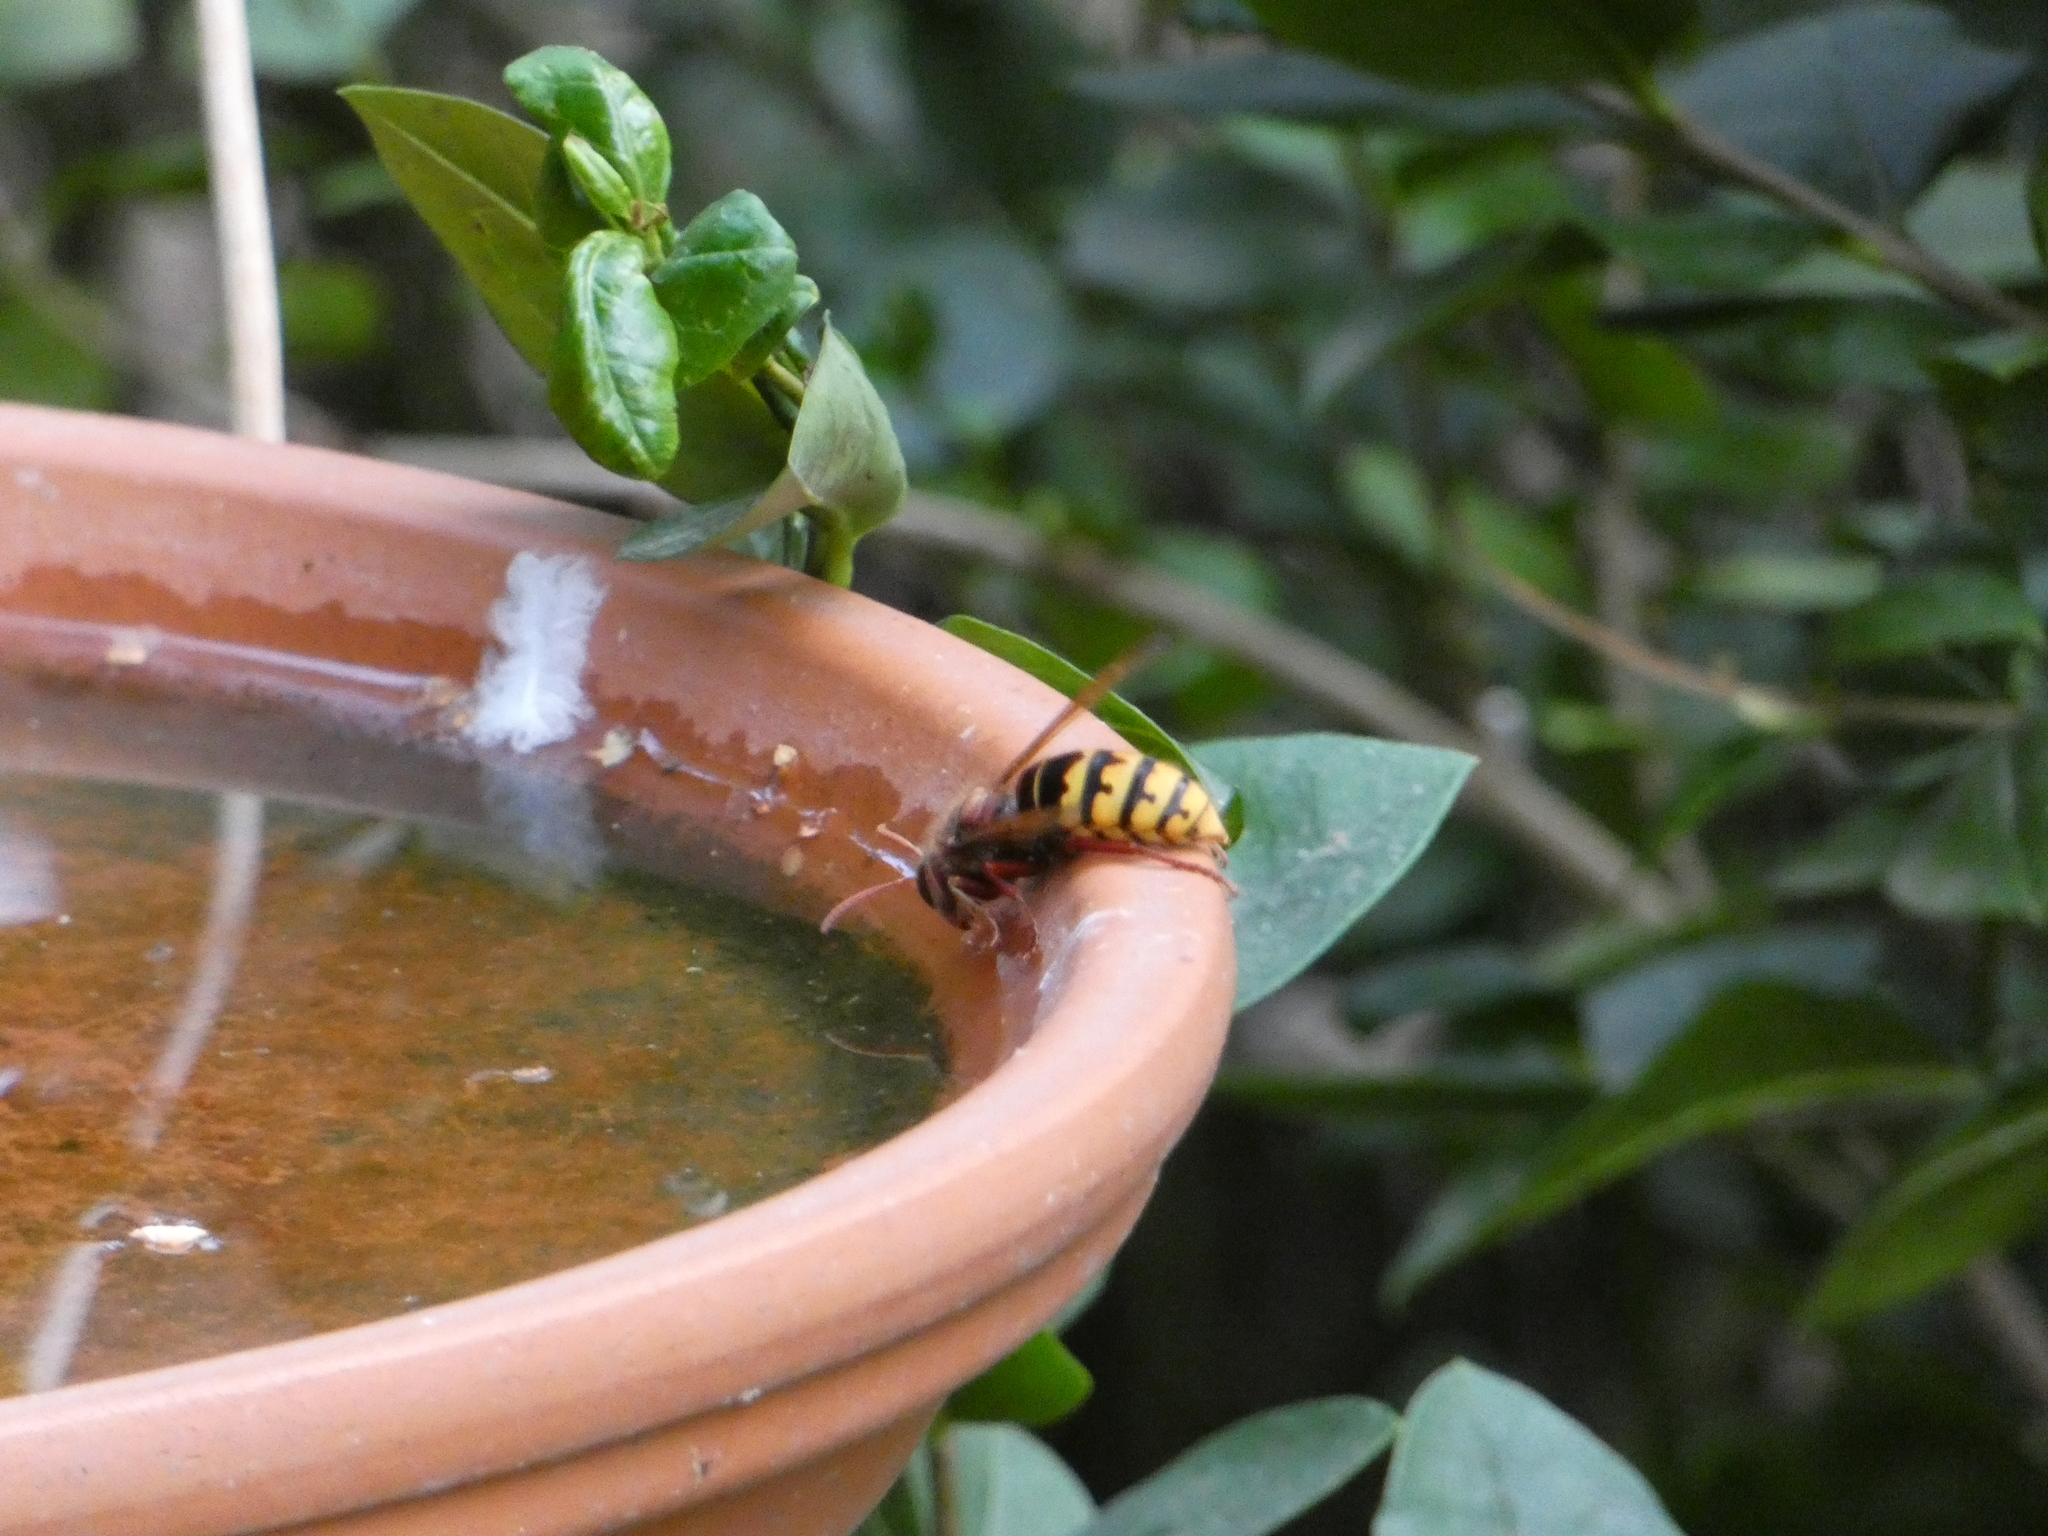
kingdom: Animalia
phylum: Arthropoda
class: Insecta
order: Hymenoptera
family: Vespidae
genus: Vespa
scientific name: Vespa crabro
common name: Hornet
